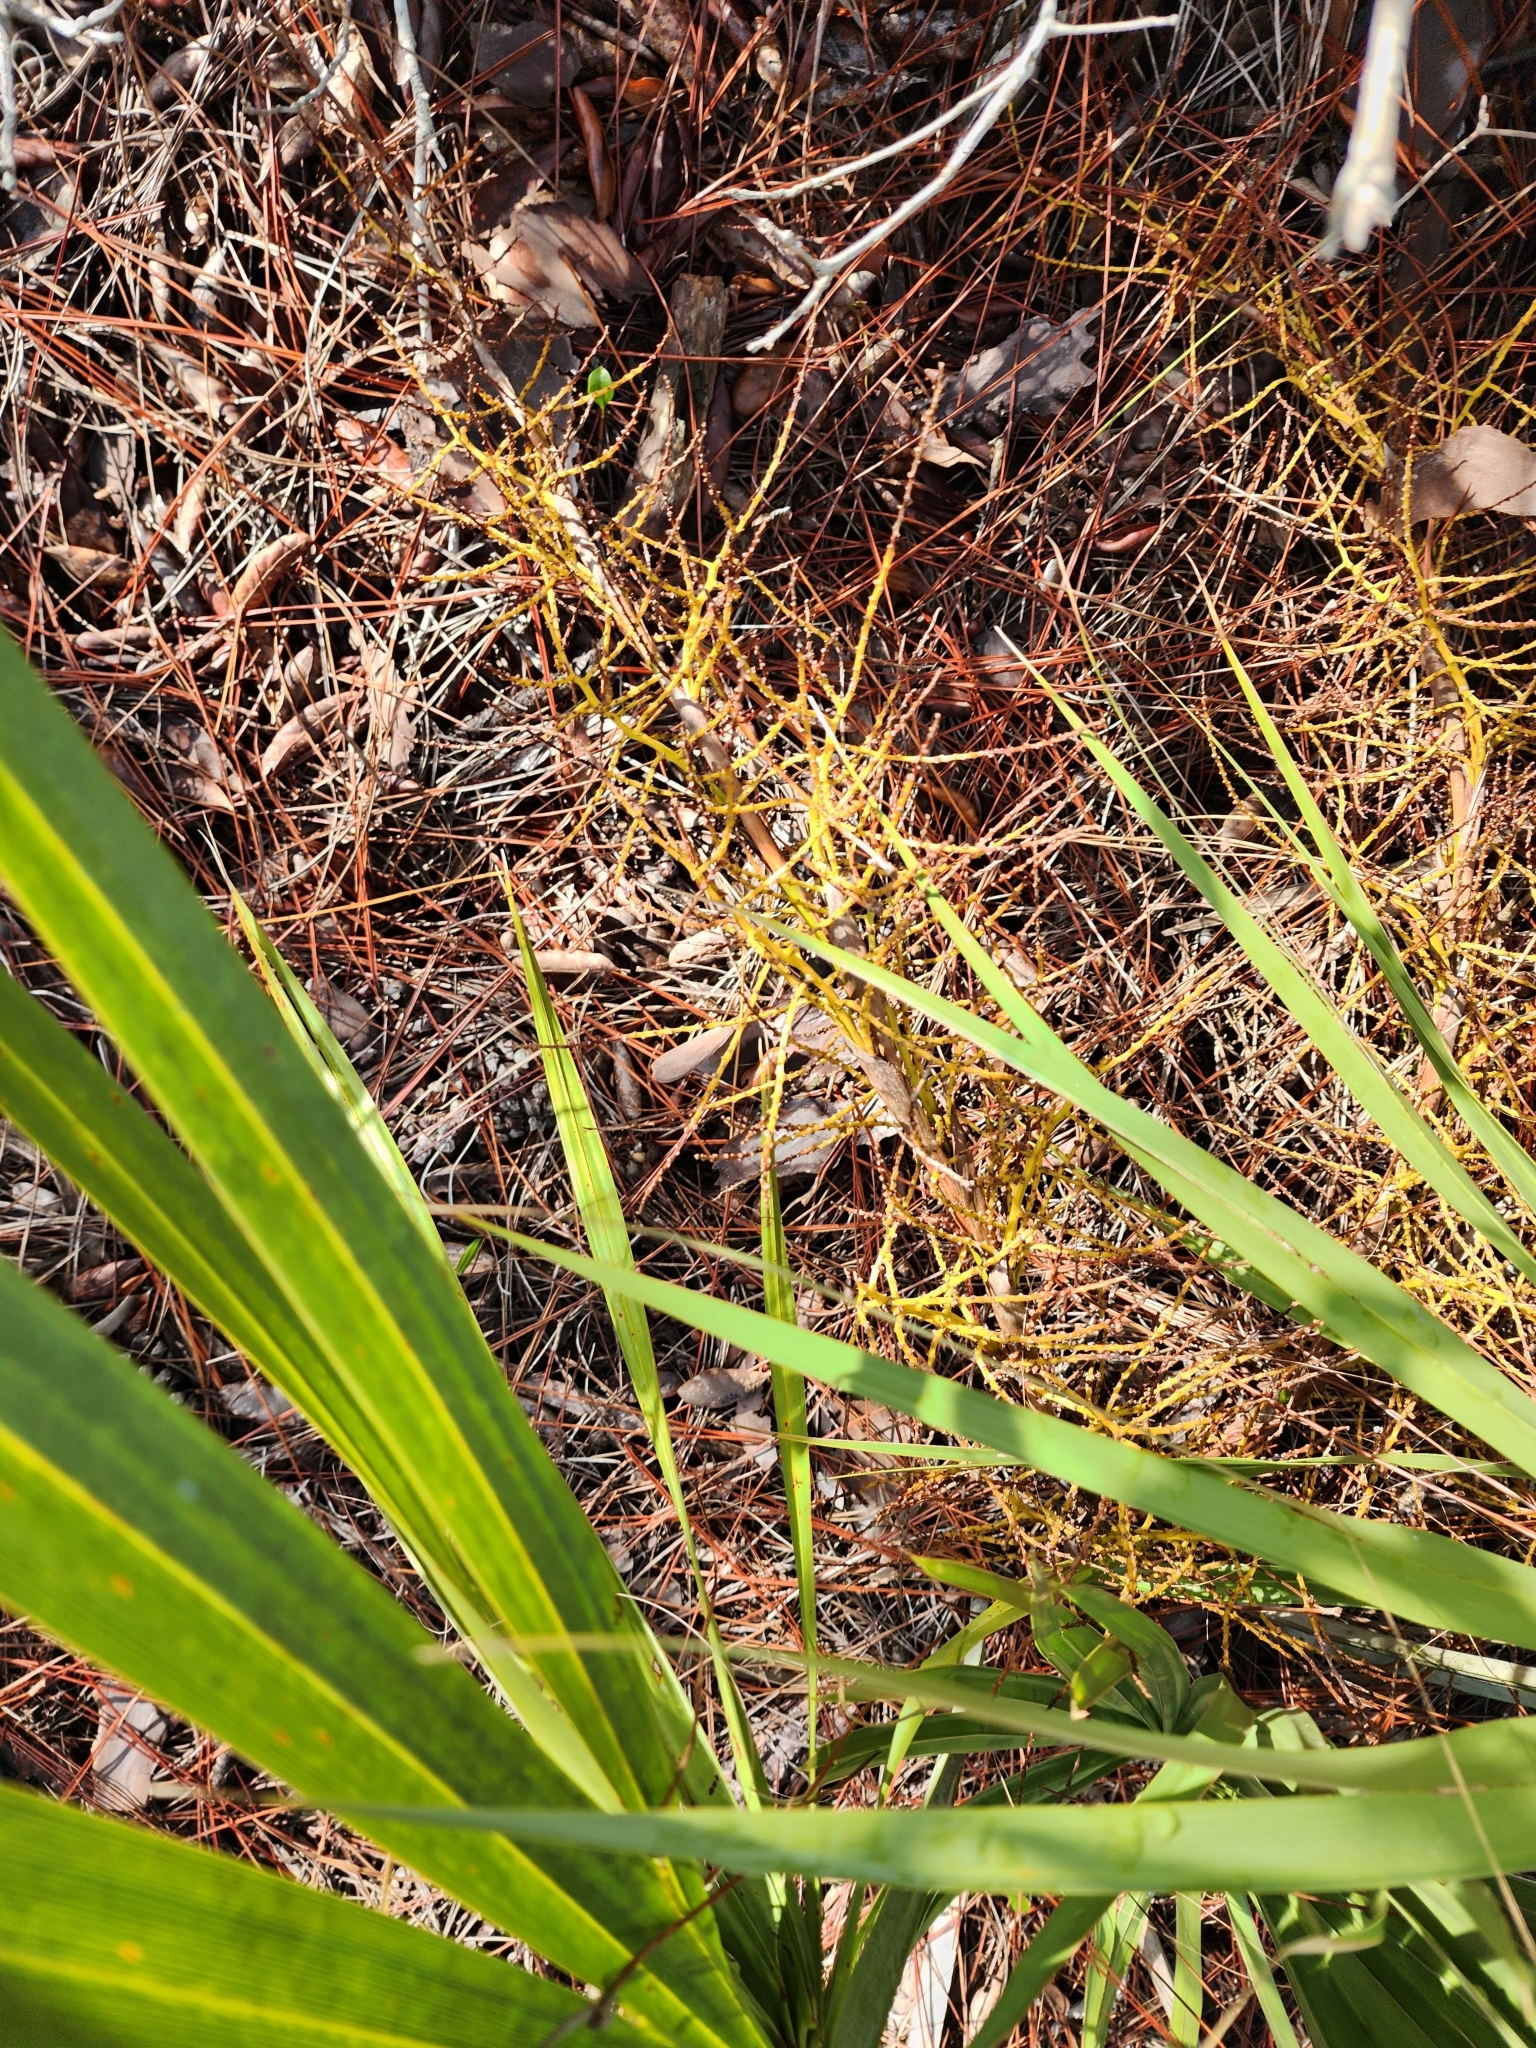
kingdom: Plantae
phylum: Tracheophyta
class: Liliopsida
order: Arecales
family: Arecaceae
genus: Sabal
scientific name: Sabal etonia
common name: Dwarf palmetto
